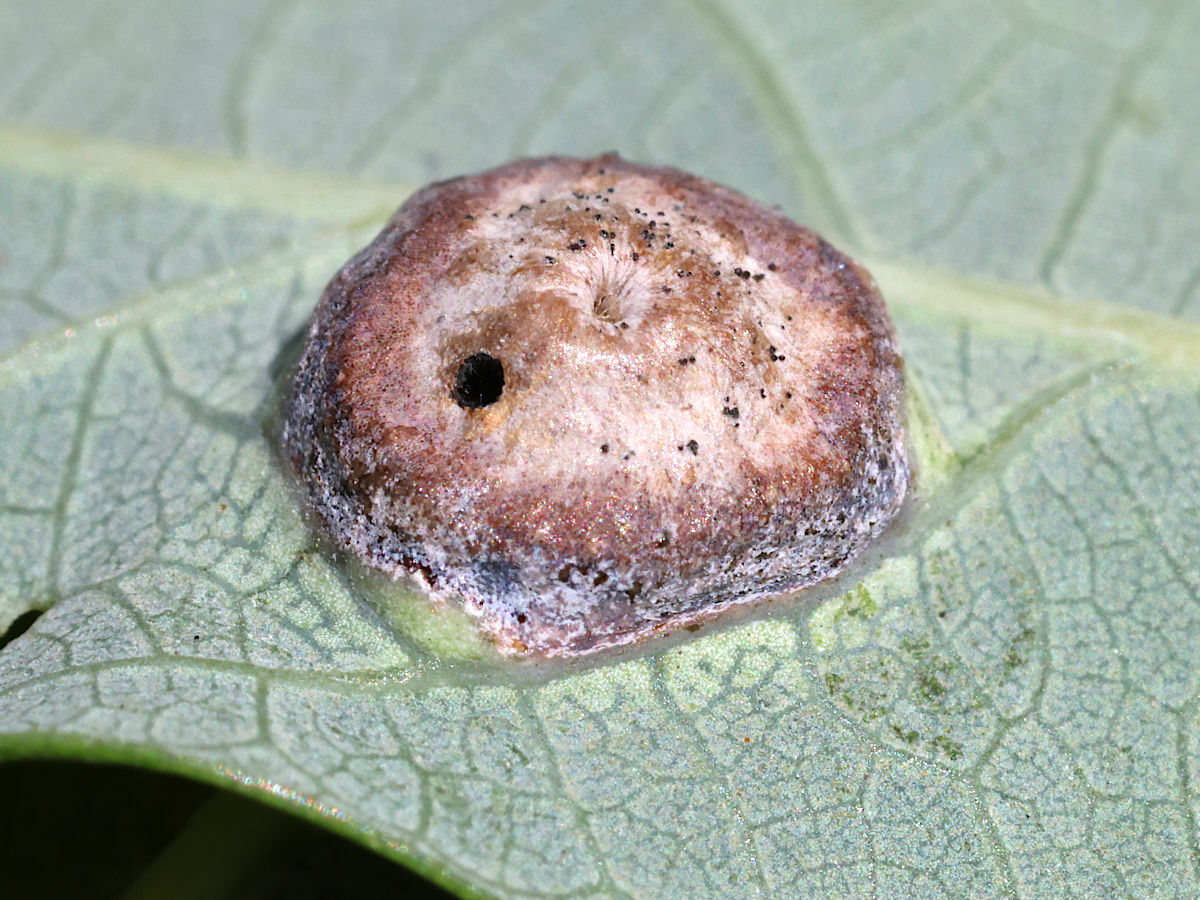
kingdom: Animalia
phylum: Arthropoda
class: Insecta
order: Hymenoptera
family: Cynipidae
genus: Callirhytis
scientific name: Callirhytis
